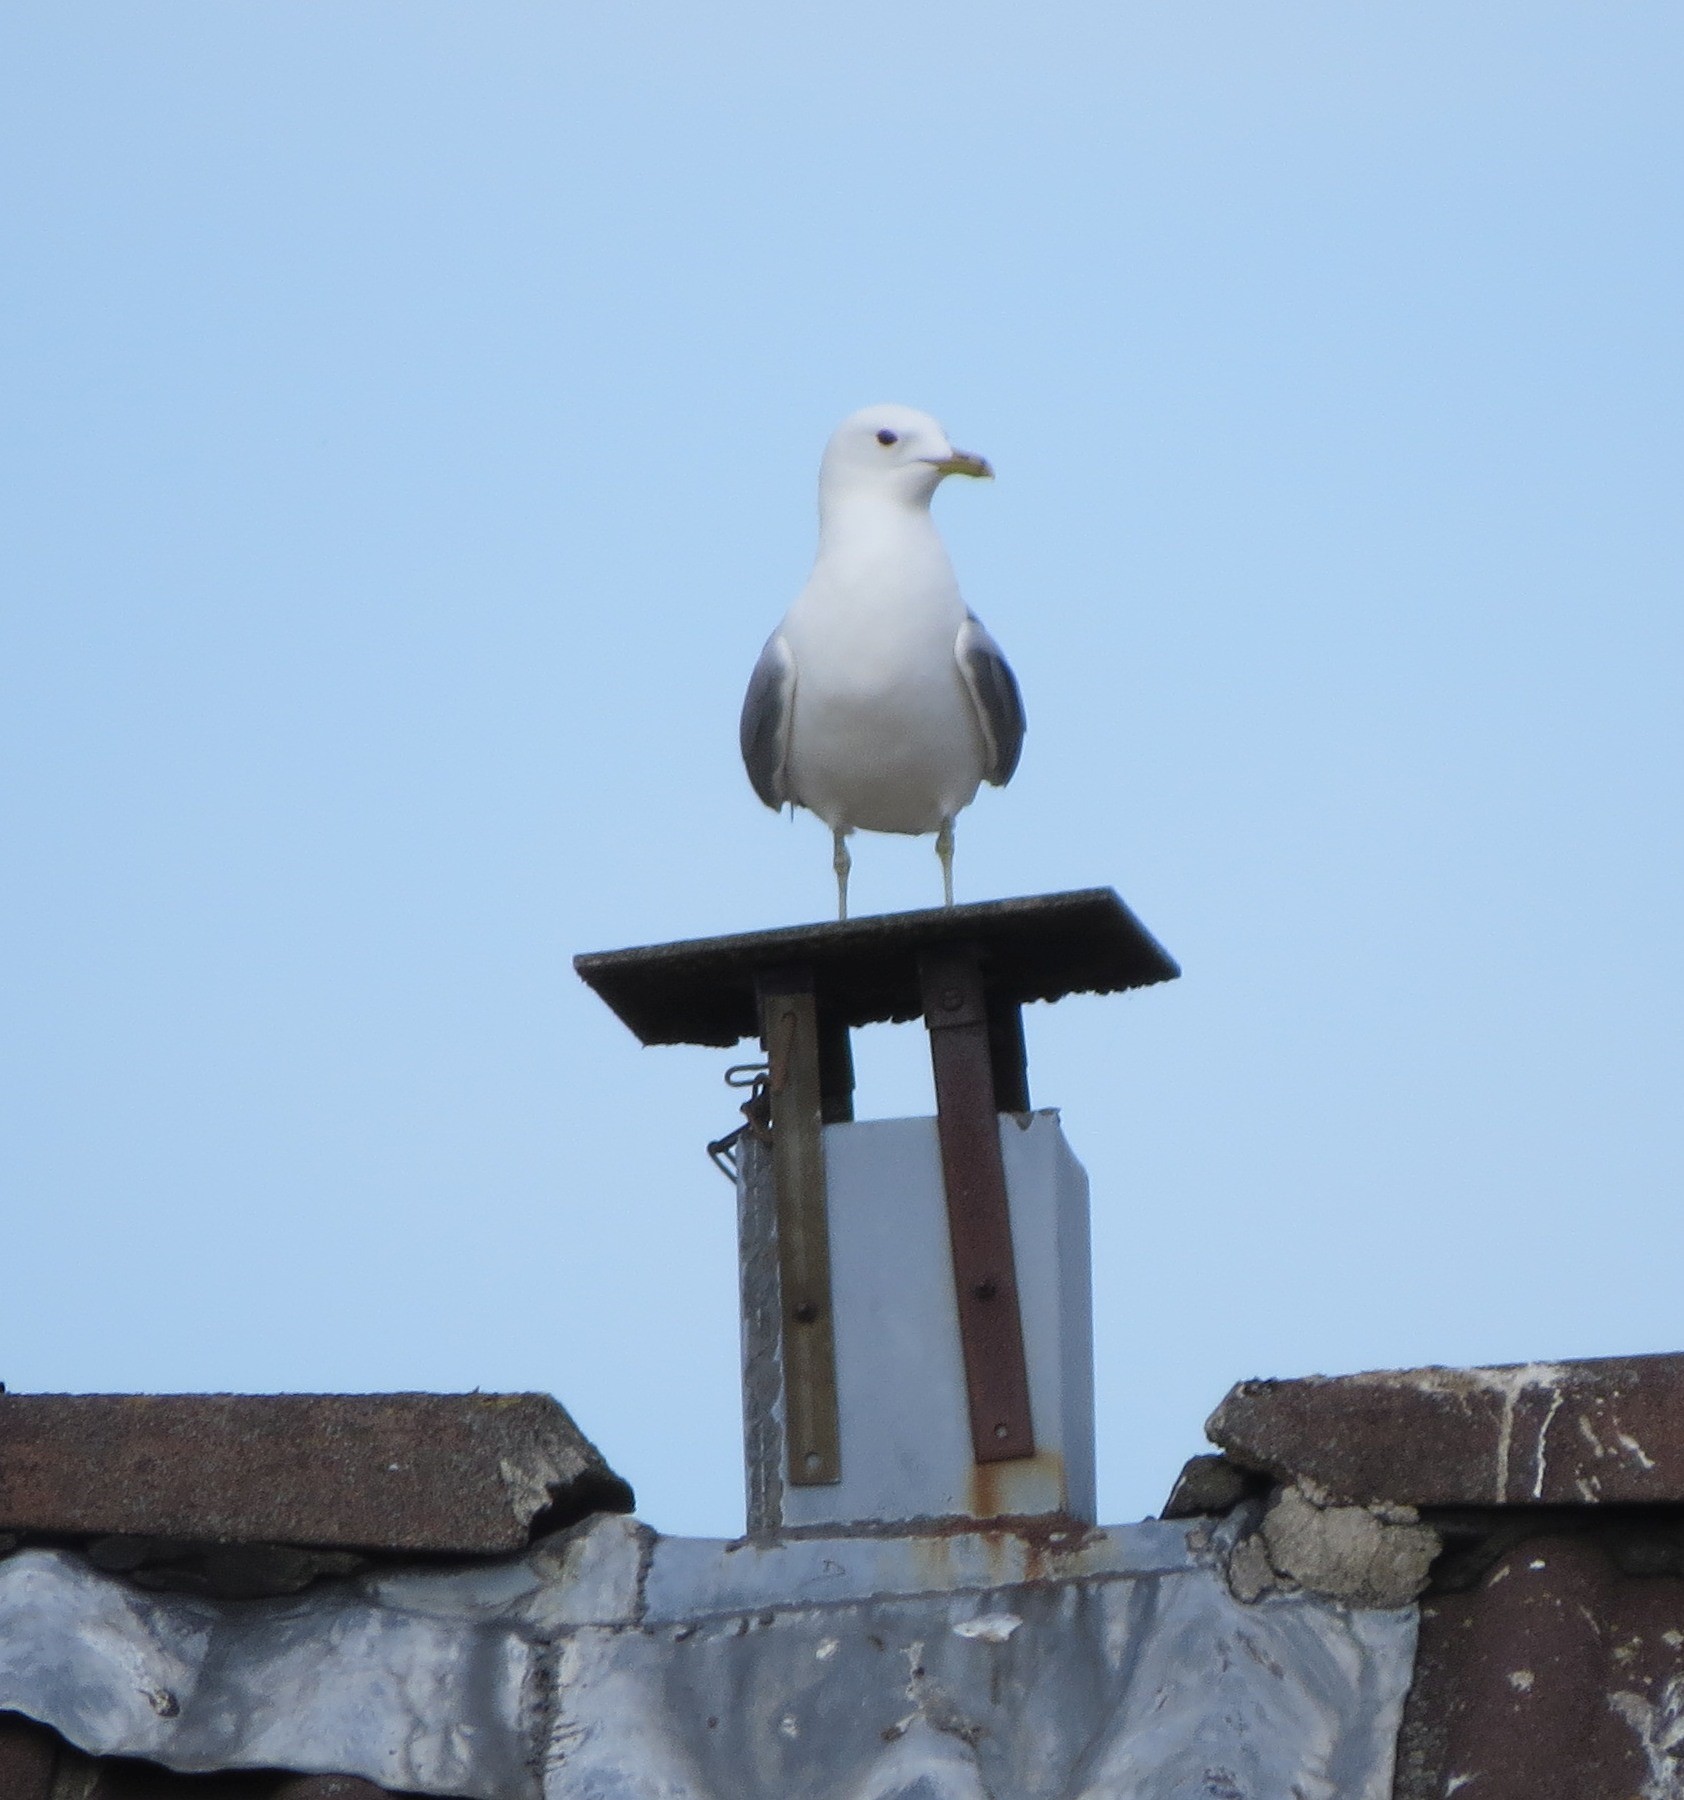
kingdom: Animalia
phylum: Chordata
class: Aves
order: Charadriiformes
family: Laridae
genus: Larus
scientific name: Larus canus
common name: Mew gull
